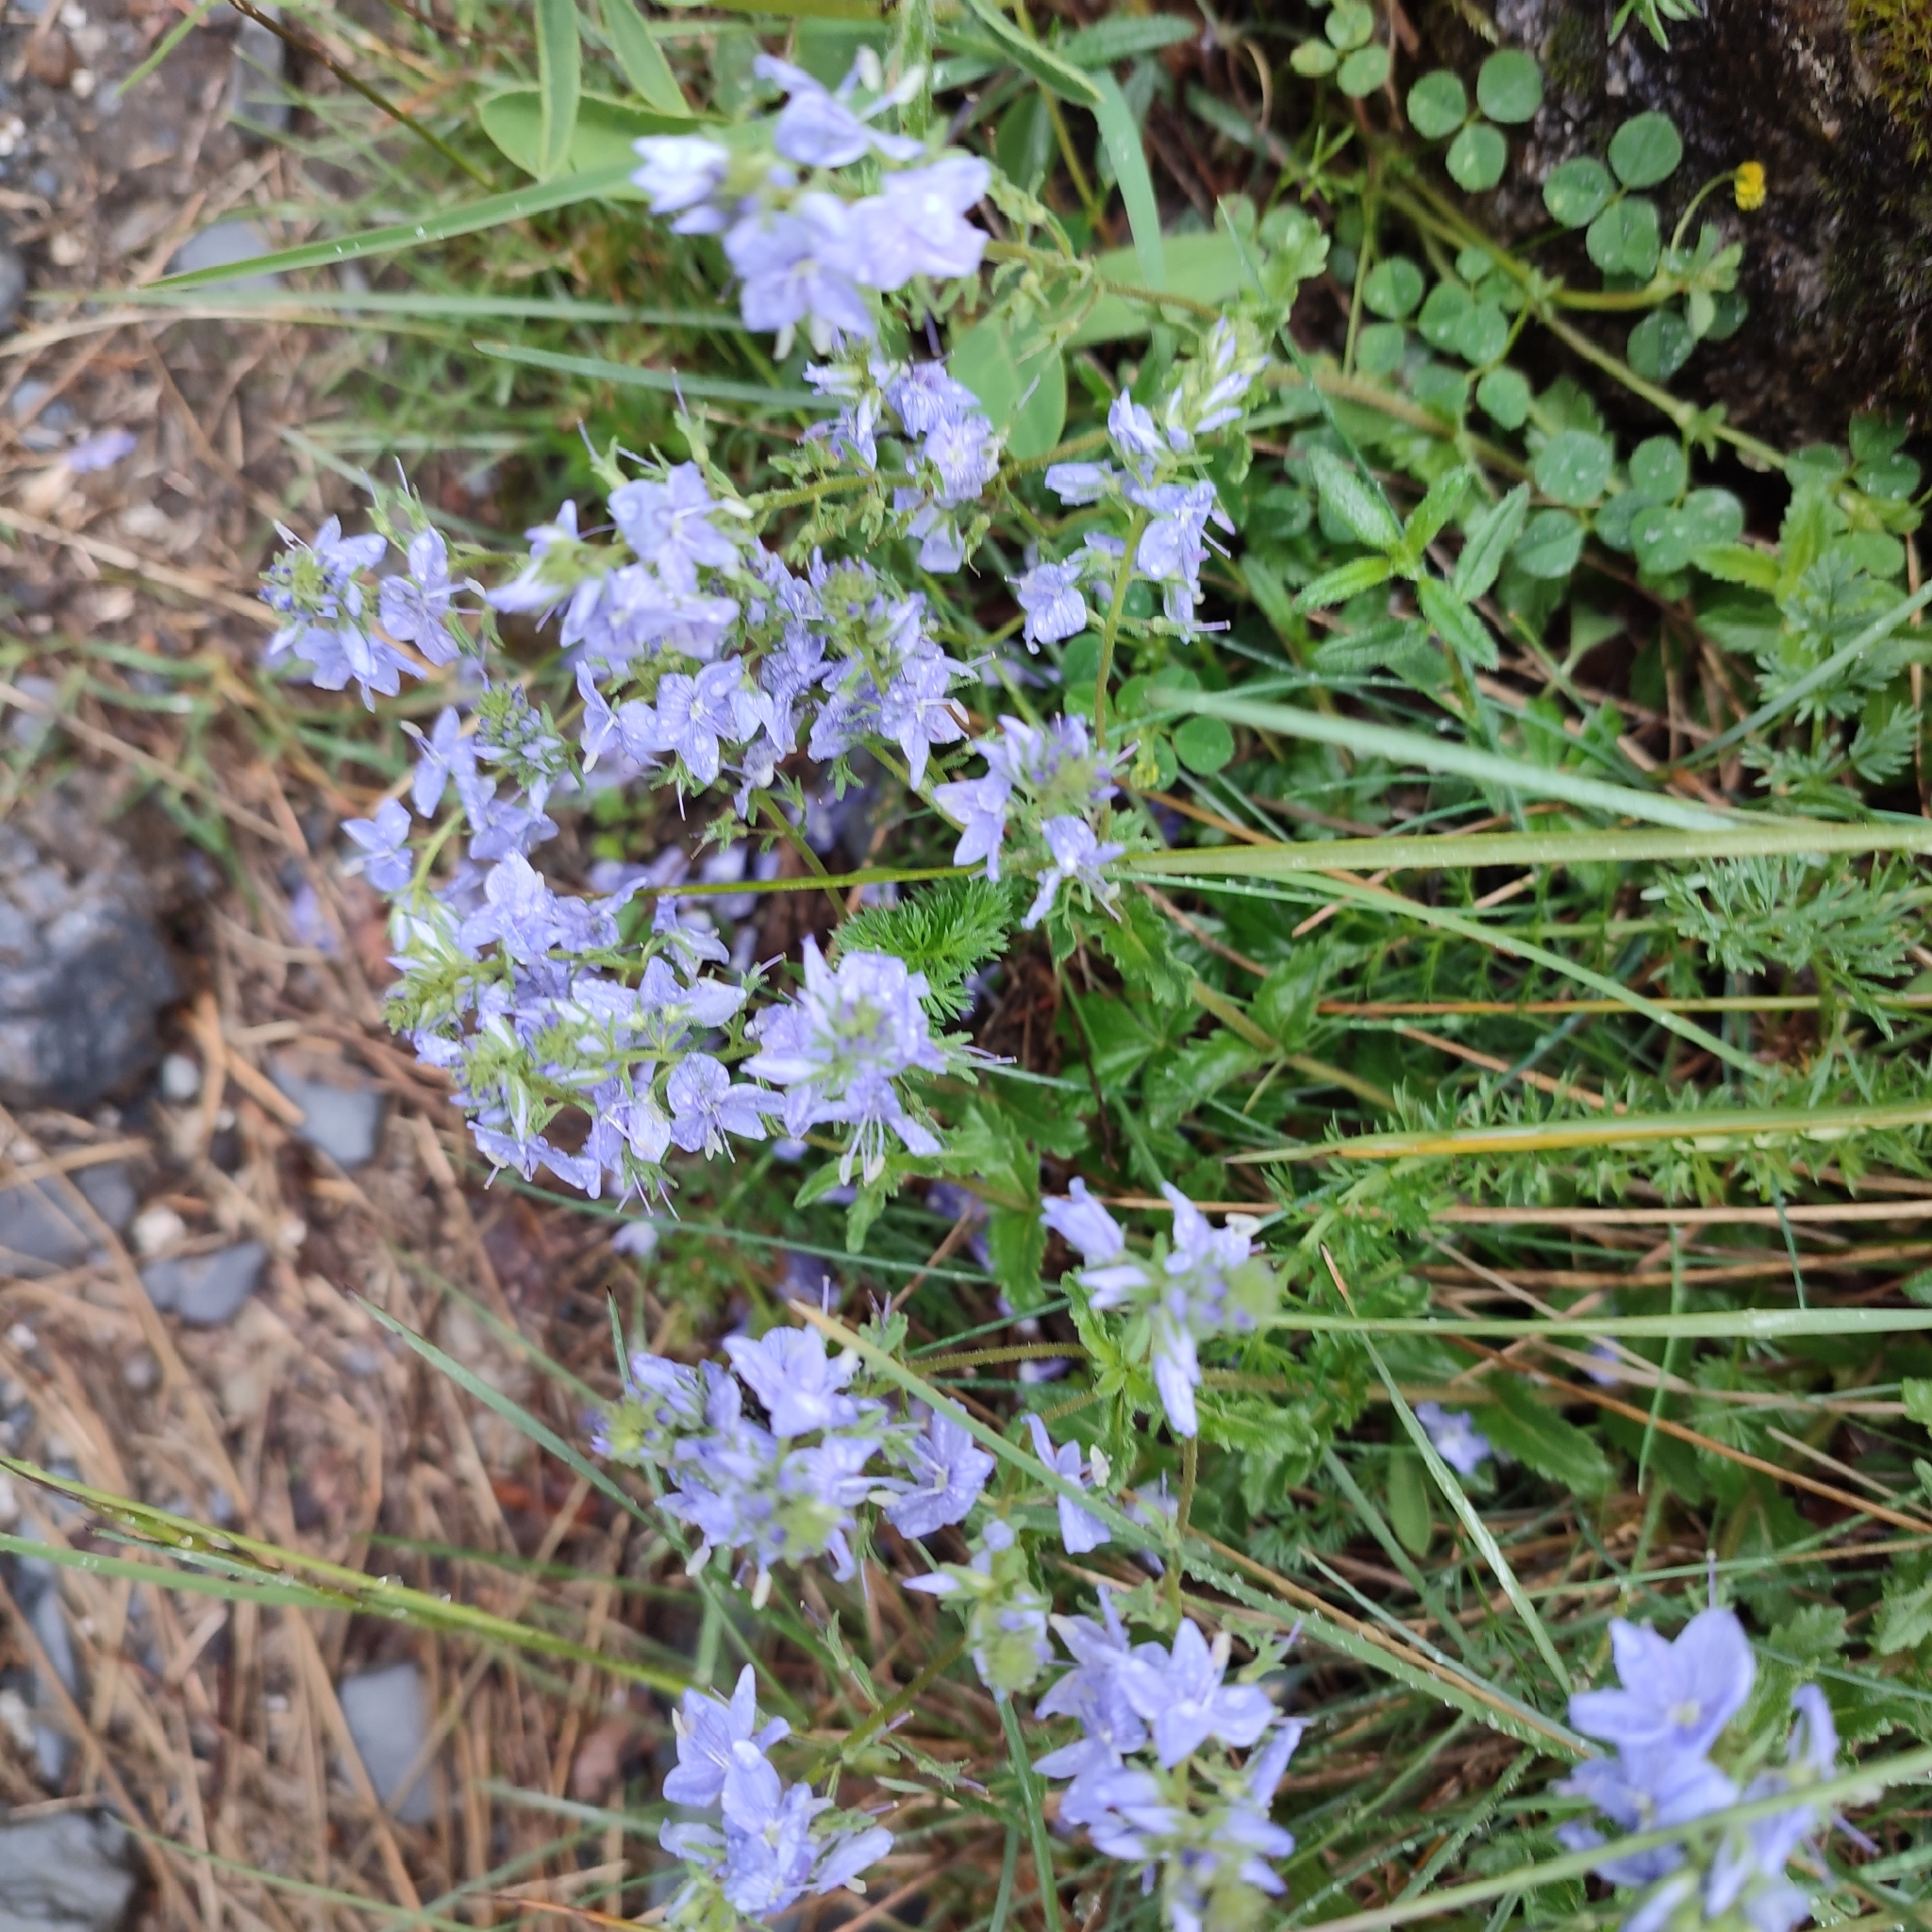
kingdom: Plantae
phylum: Tracheophyta
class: Magnoliopsida
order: Lamiales
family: Plantaginaceae
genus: Veronica
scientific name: Veronica orsiniana
